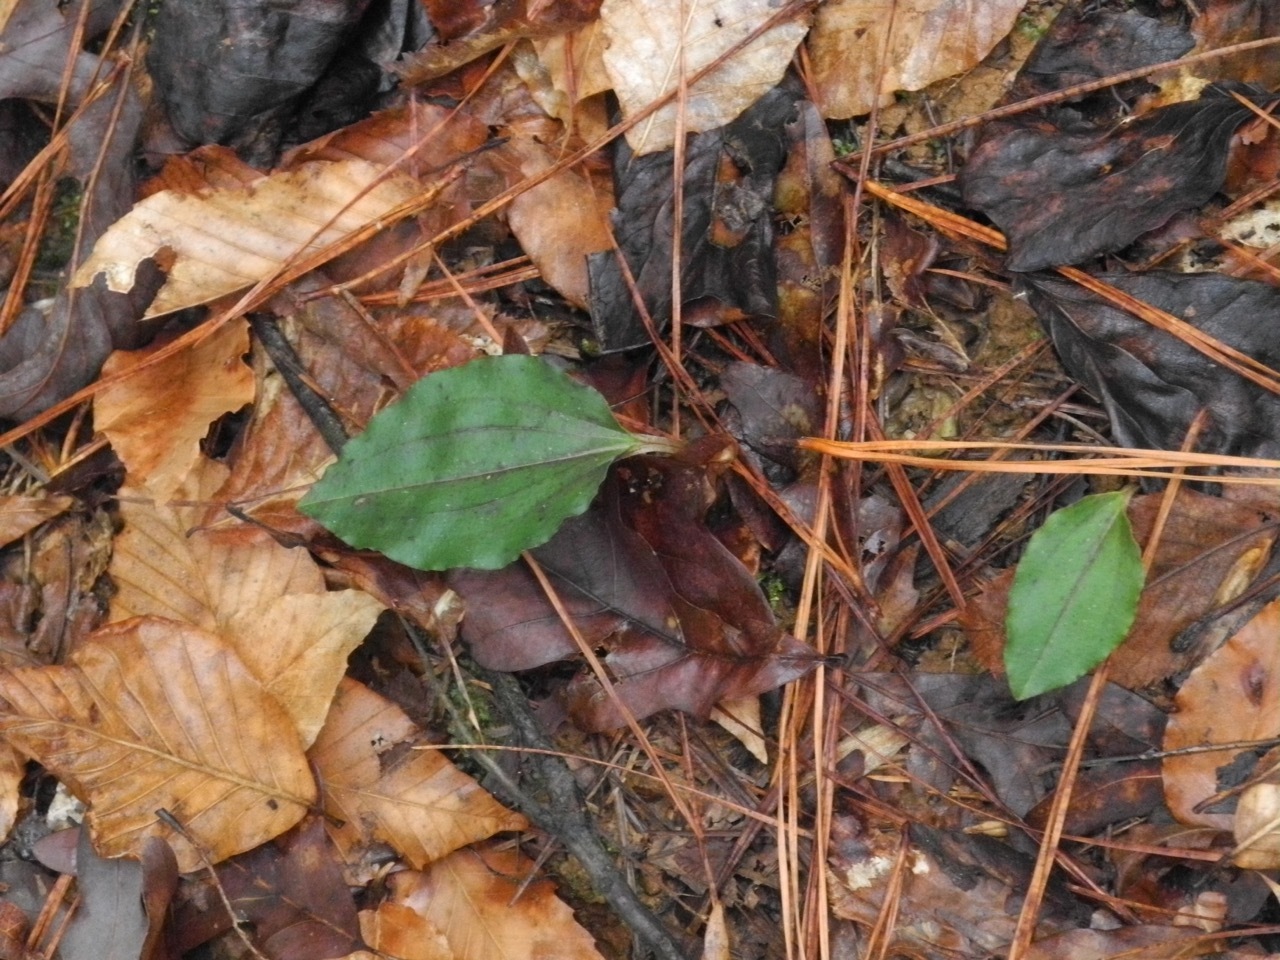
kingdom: Plantae
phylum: Tracheophyta
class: Liliopsida
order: Asparagales
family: Orchidaceae
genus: Tipularia
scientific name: Tipularia discolor
